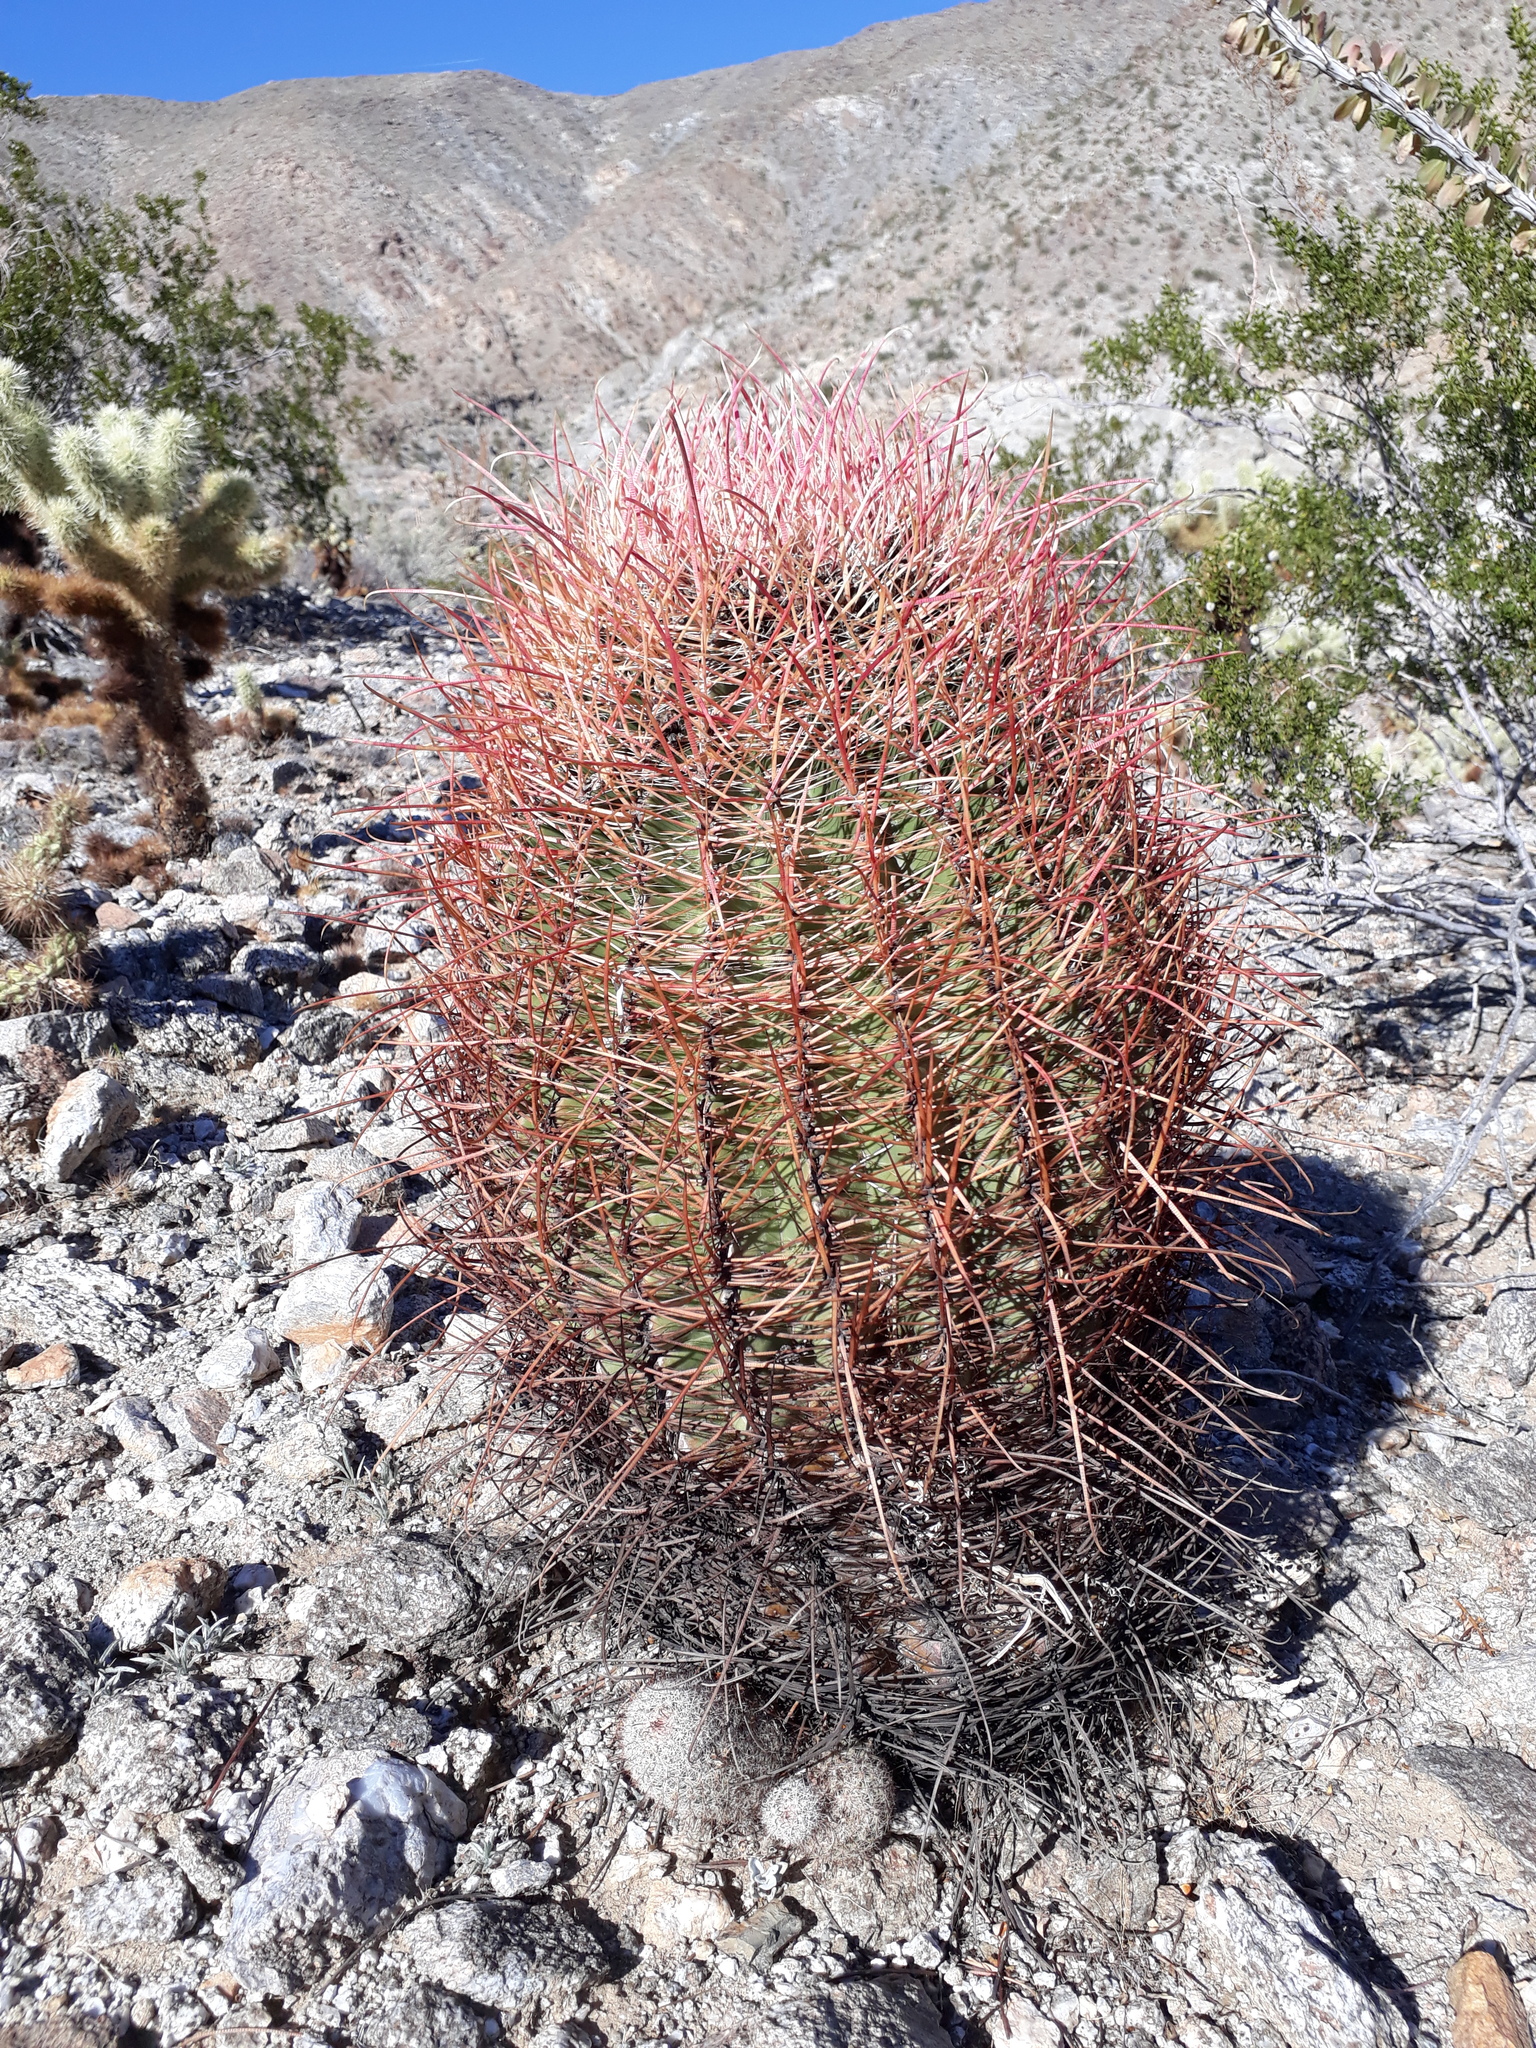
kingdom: Plantae
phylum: Tracheophyta
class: Magnoliopsida
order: Caryophyllales
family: Cactaceae
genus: Ferocactus
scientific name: Ferocactus cylindraceus
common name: California barrel cactus
